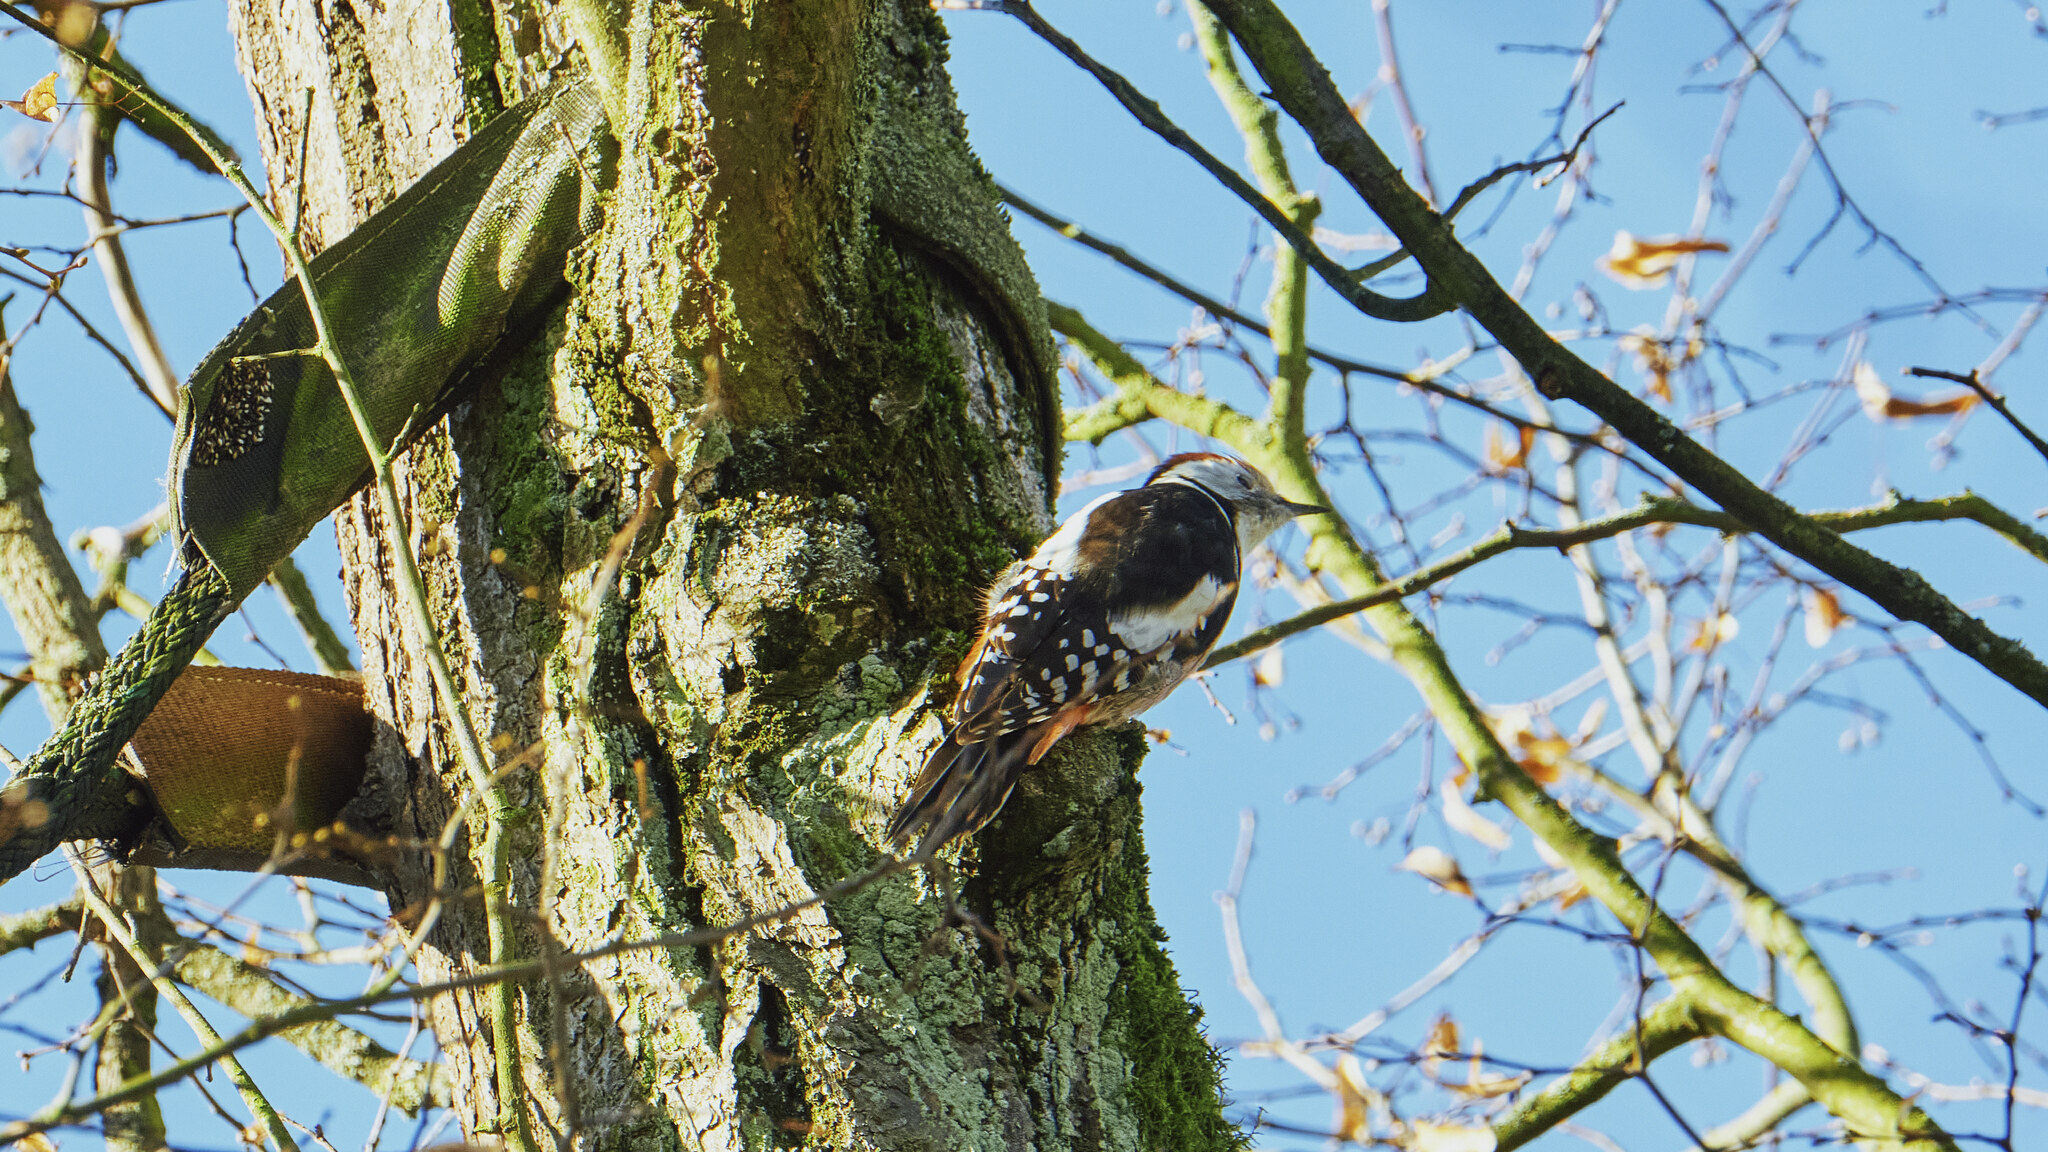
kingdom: Animalia
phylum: Chordata
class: Aves
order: Piciformes
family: Picidae
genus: Dendrocoptes
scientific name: Dendrocoptes medius
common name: Middle spotted woodpecker
